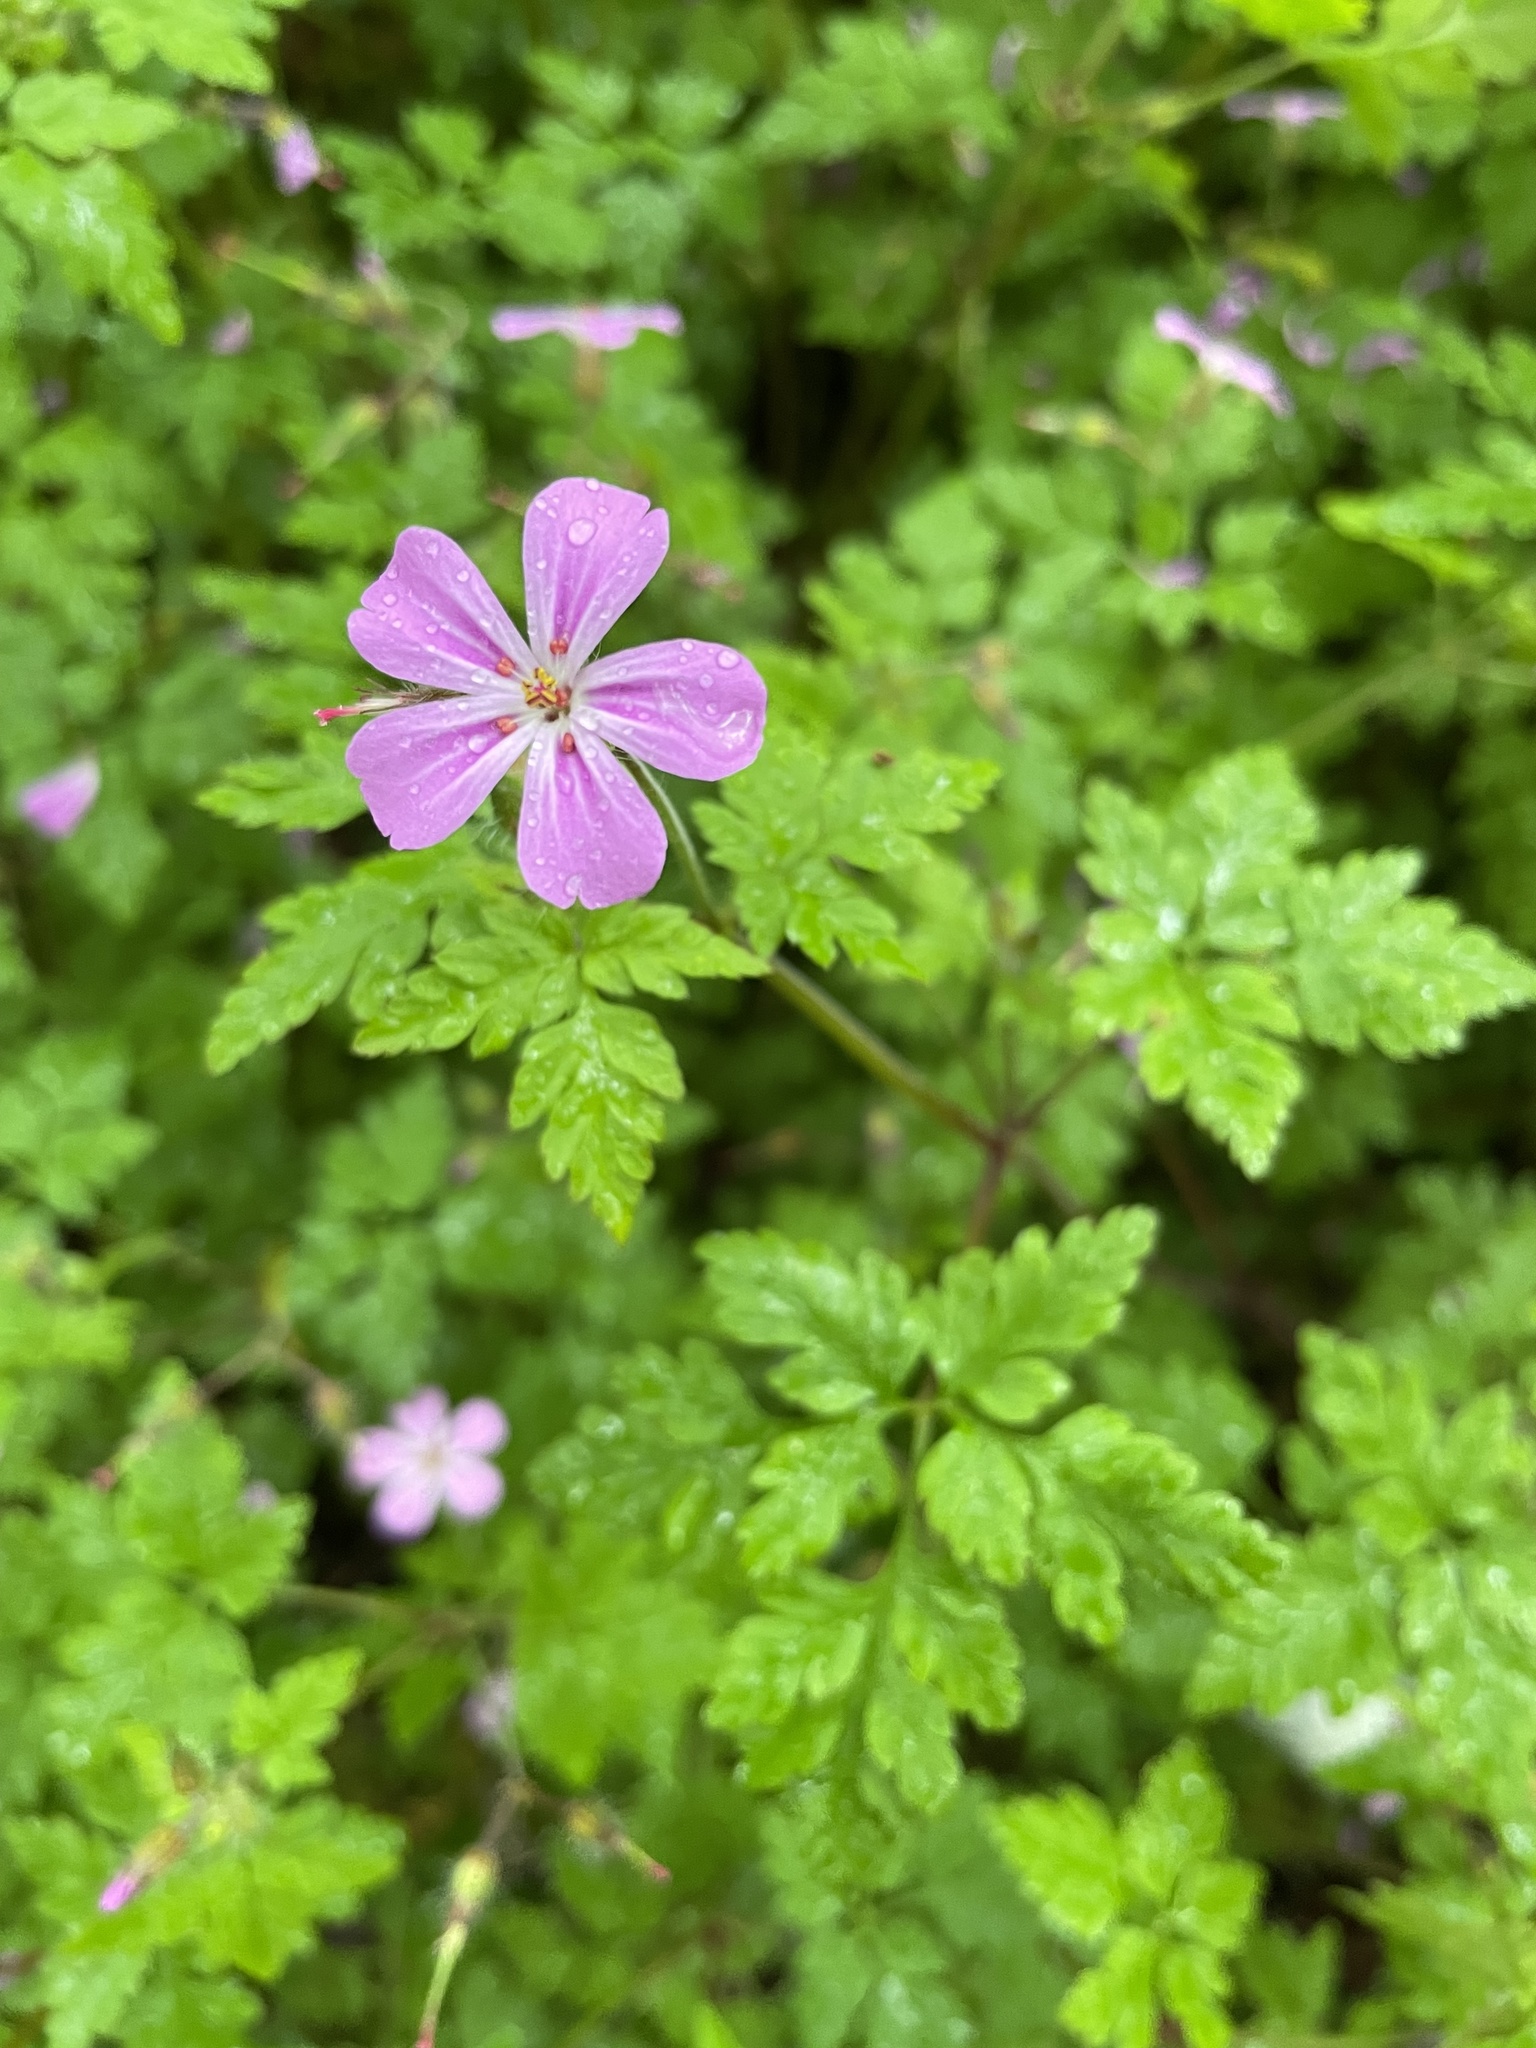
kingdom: Plantae
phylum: Tracheophyta
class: Magnoliopsida
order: Geraniales
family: Geraniaceae
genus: Geranium
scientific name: Geranium robertianum
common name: Herb-robert
